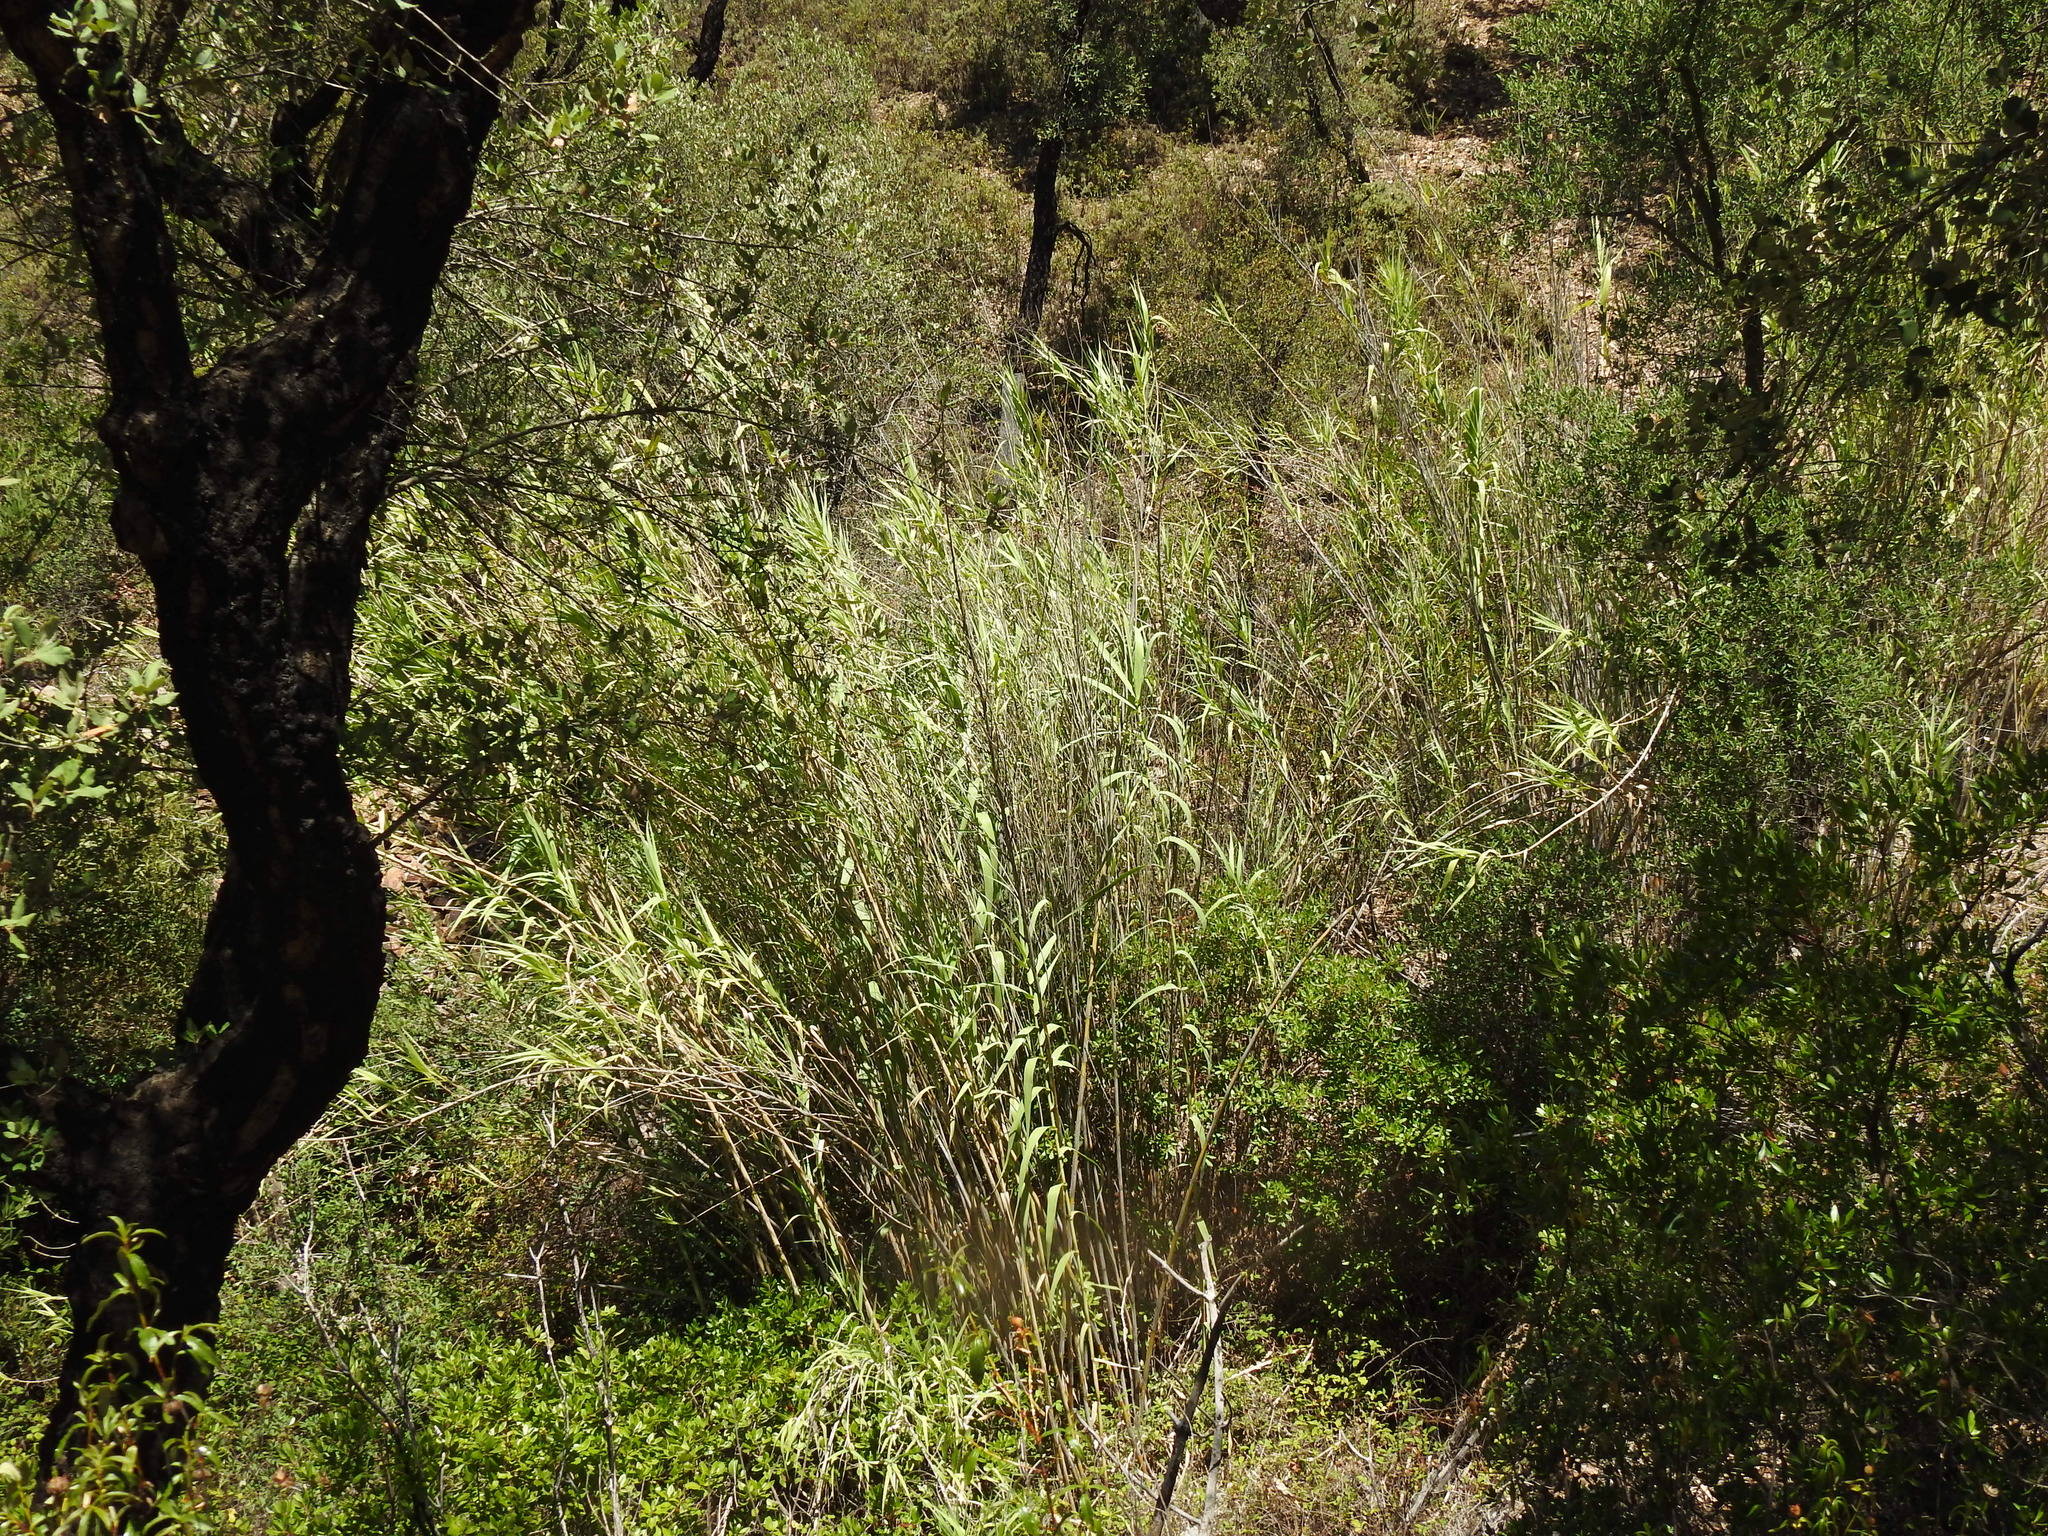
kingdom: Plantae
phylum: Tracheophyta
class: Liliopsida
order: Poales
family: Poaceae
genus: Arundo
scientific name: Arundo donax
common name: Giant reed
